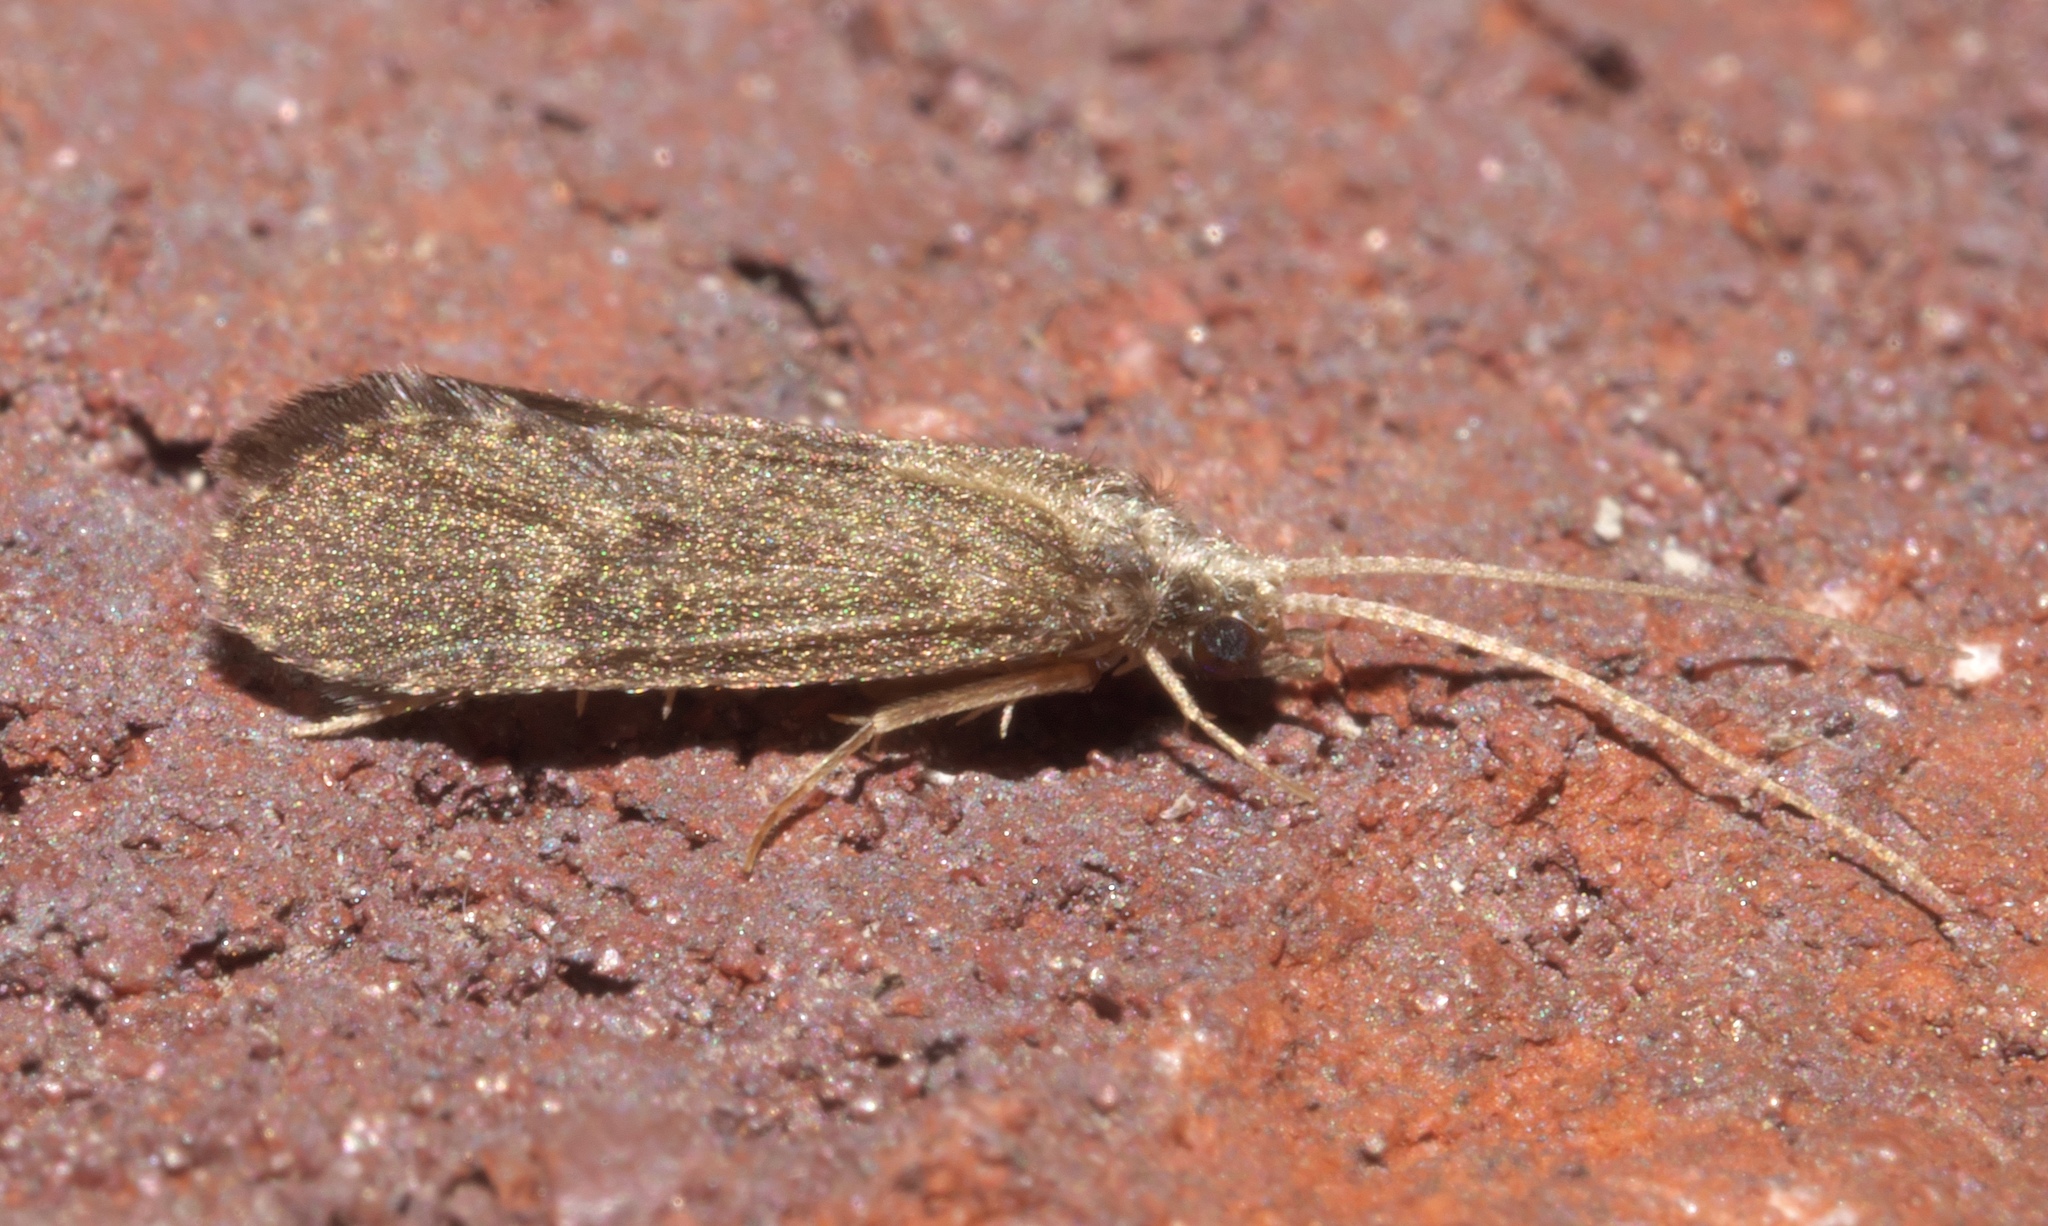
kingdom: Animalia
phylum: Arthropoda
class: Insecta
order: Trichoptera
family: Polycentropodidae
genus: Cyrnellus
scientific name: Cyrnellus fraternus
